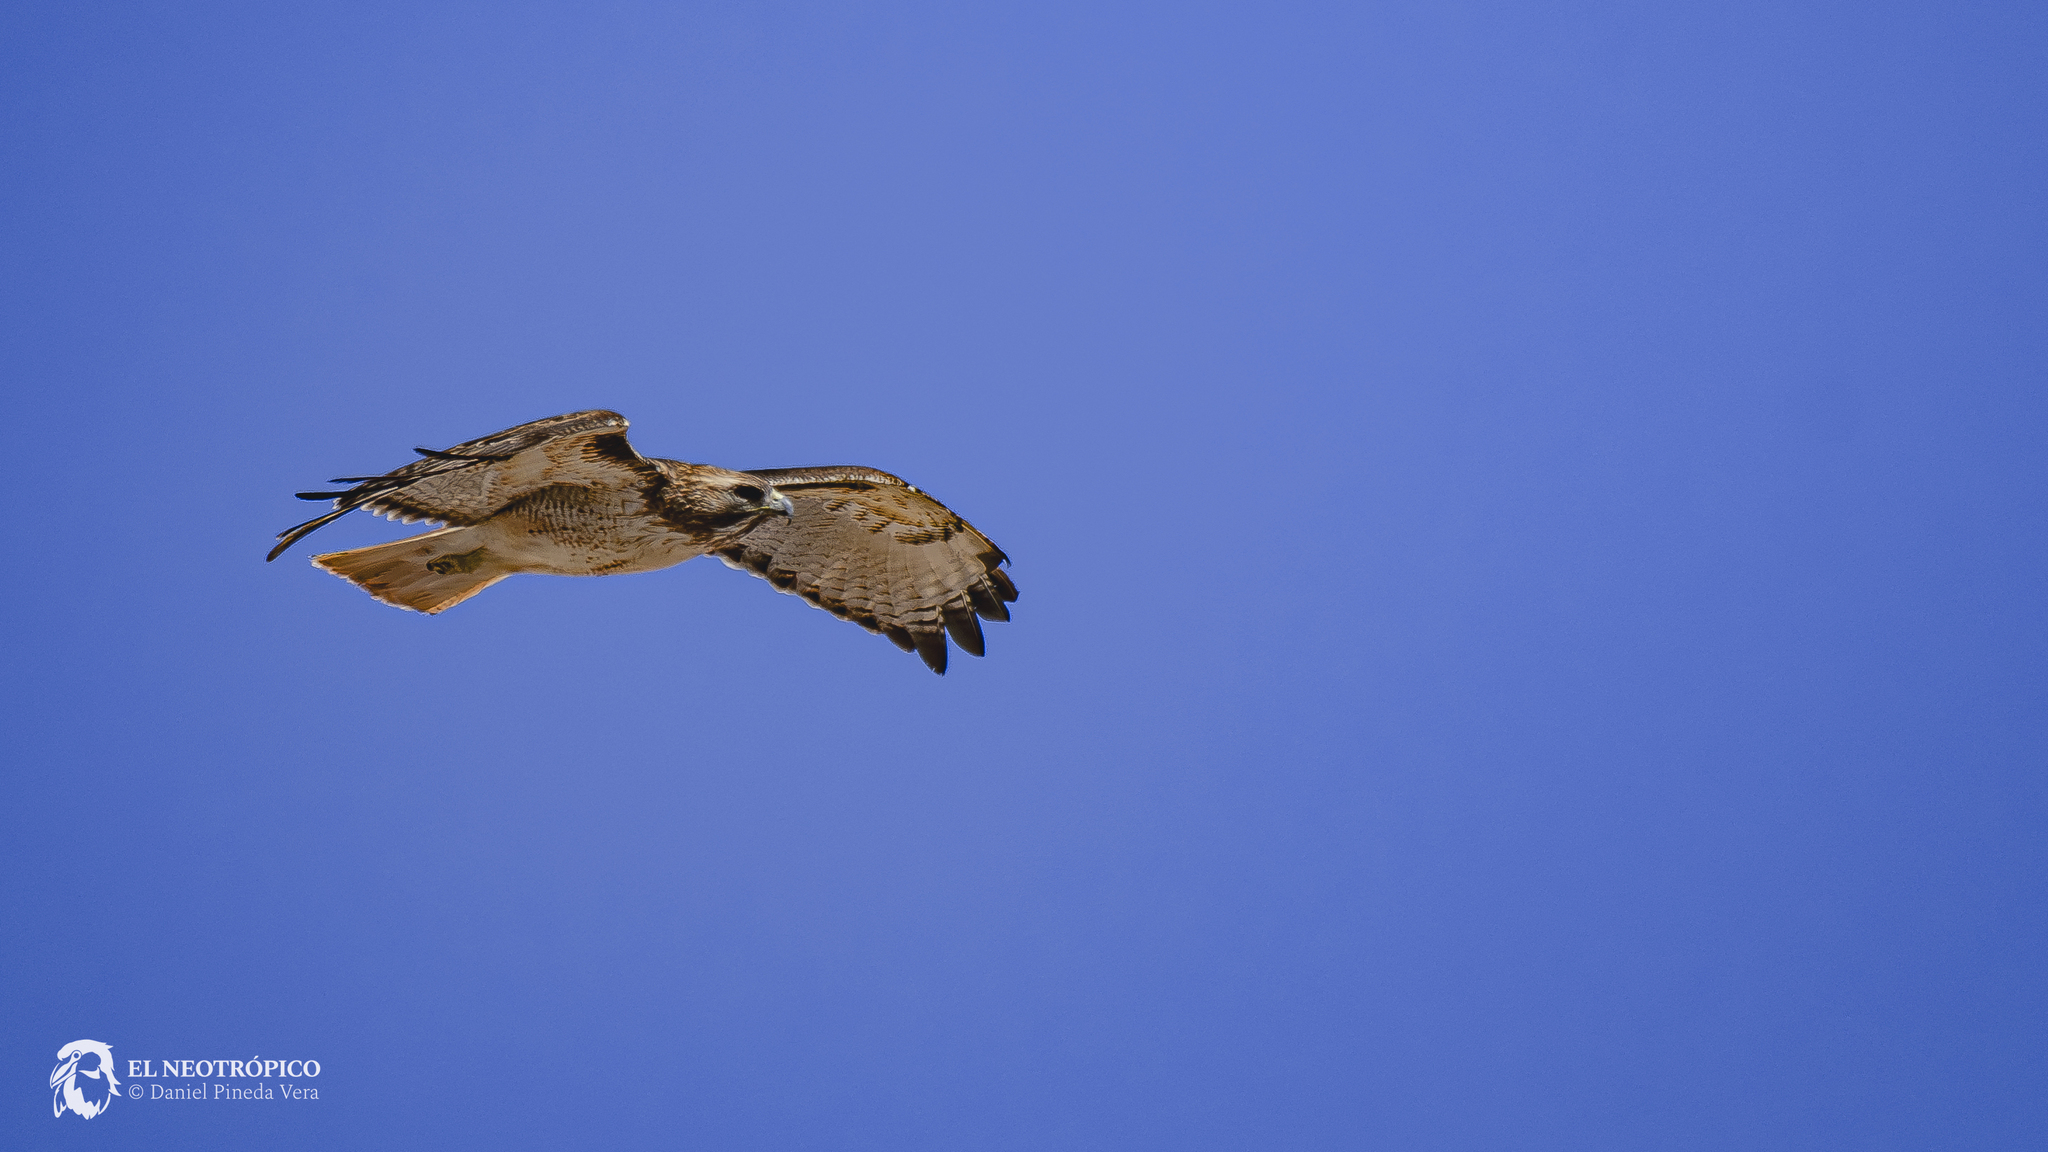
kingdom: Animalia
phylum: Chordata
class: Aves
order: Accipitriformes
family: Accipitridae
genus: Buteo
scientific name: Buteo jamaicensis
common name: Red-tailed hawk
